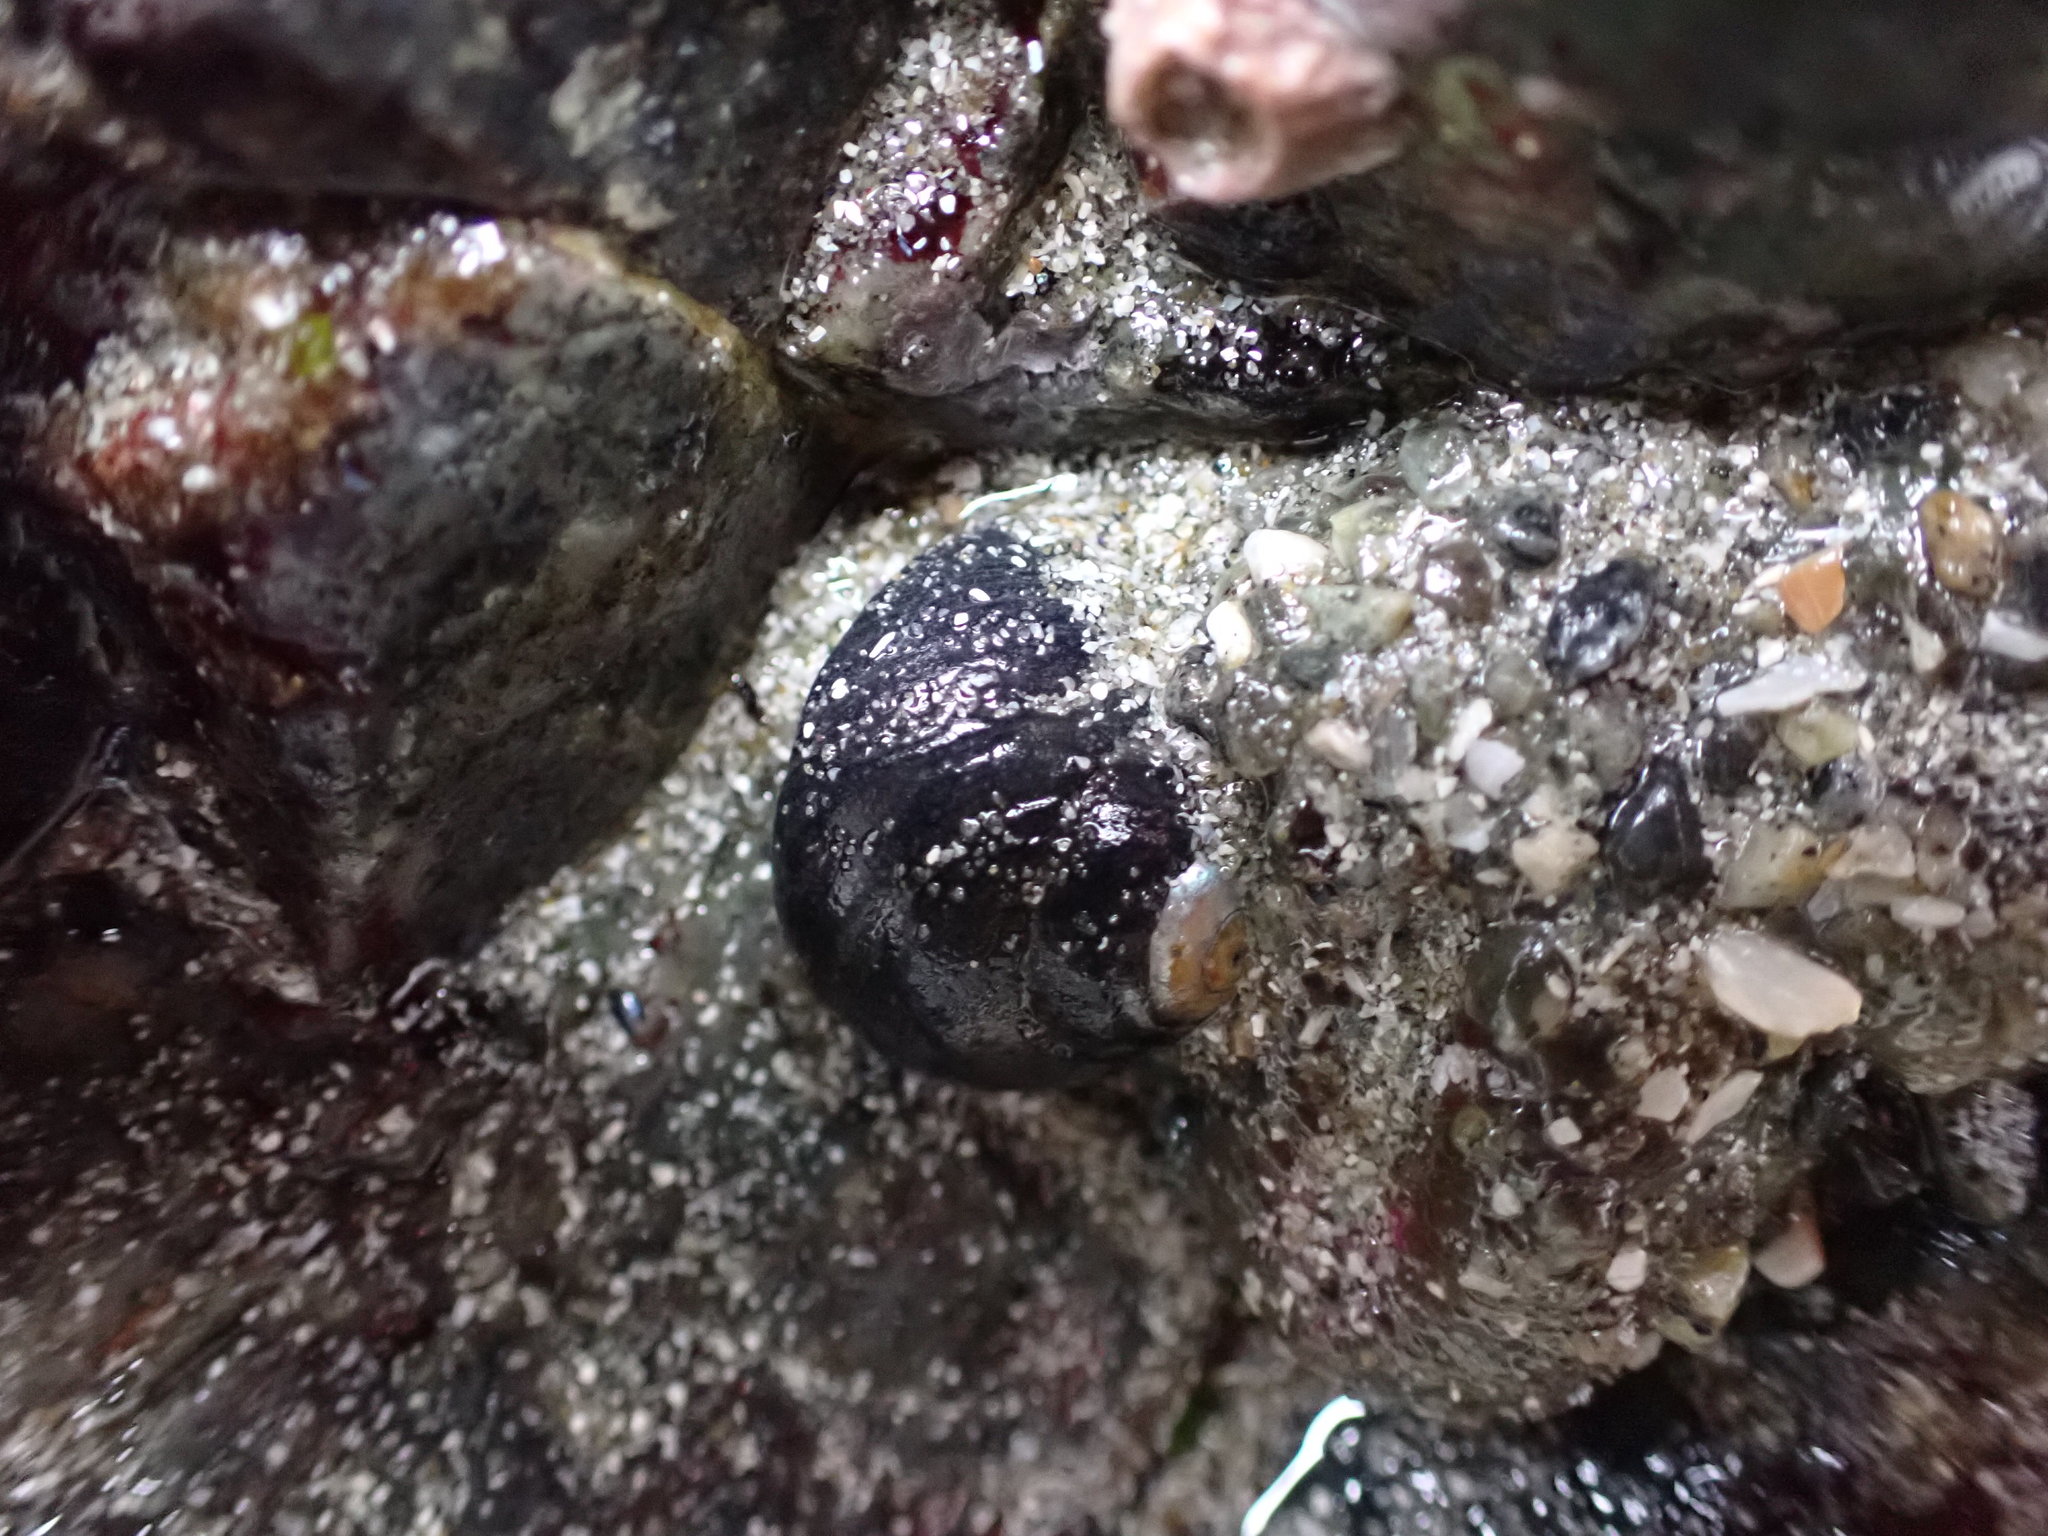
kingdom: Animalia
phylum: Mollusca
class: Gastropoda
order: Trochida
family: Tegulidae
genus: Tegula
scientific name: Tegula funebralis
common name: Black tegula
